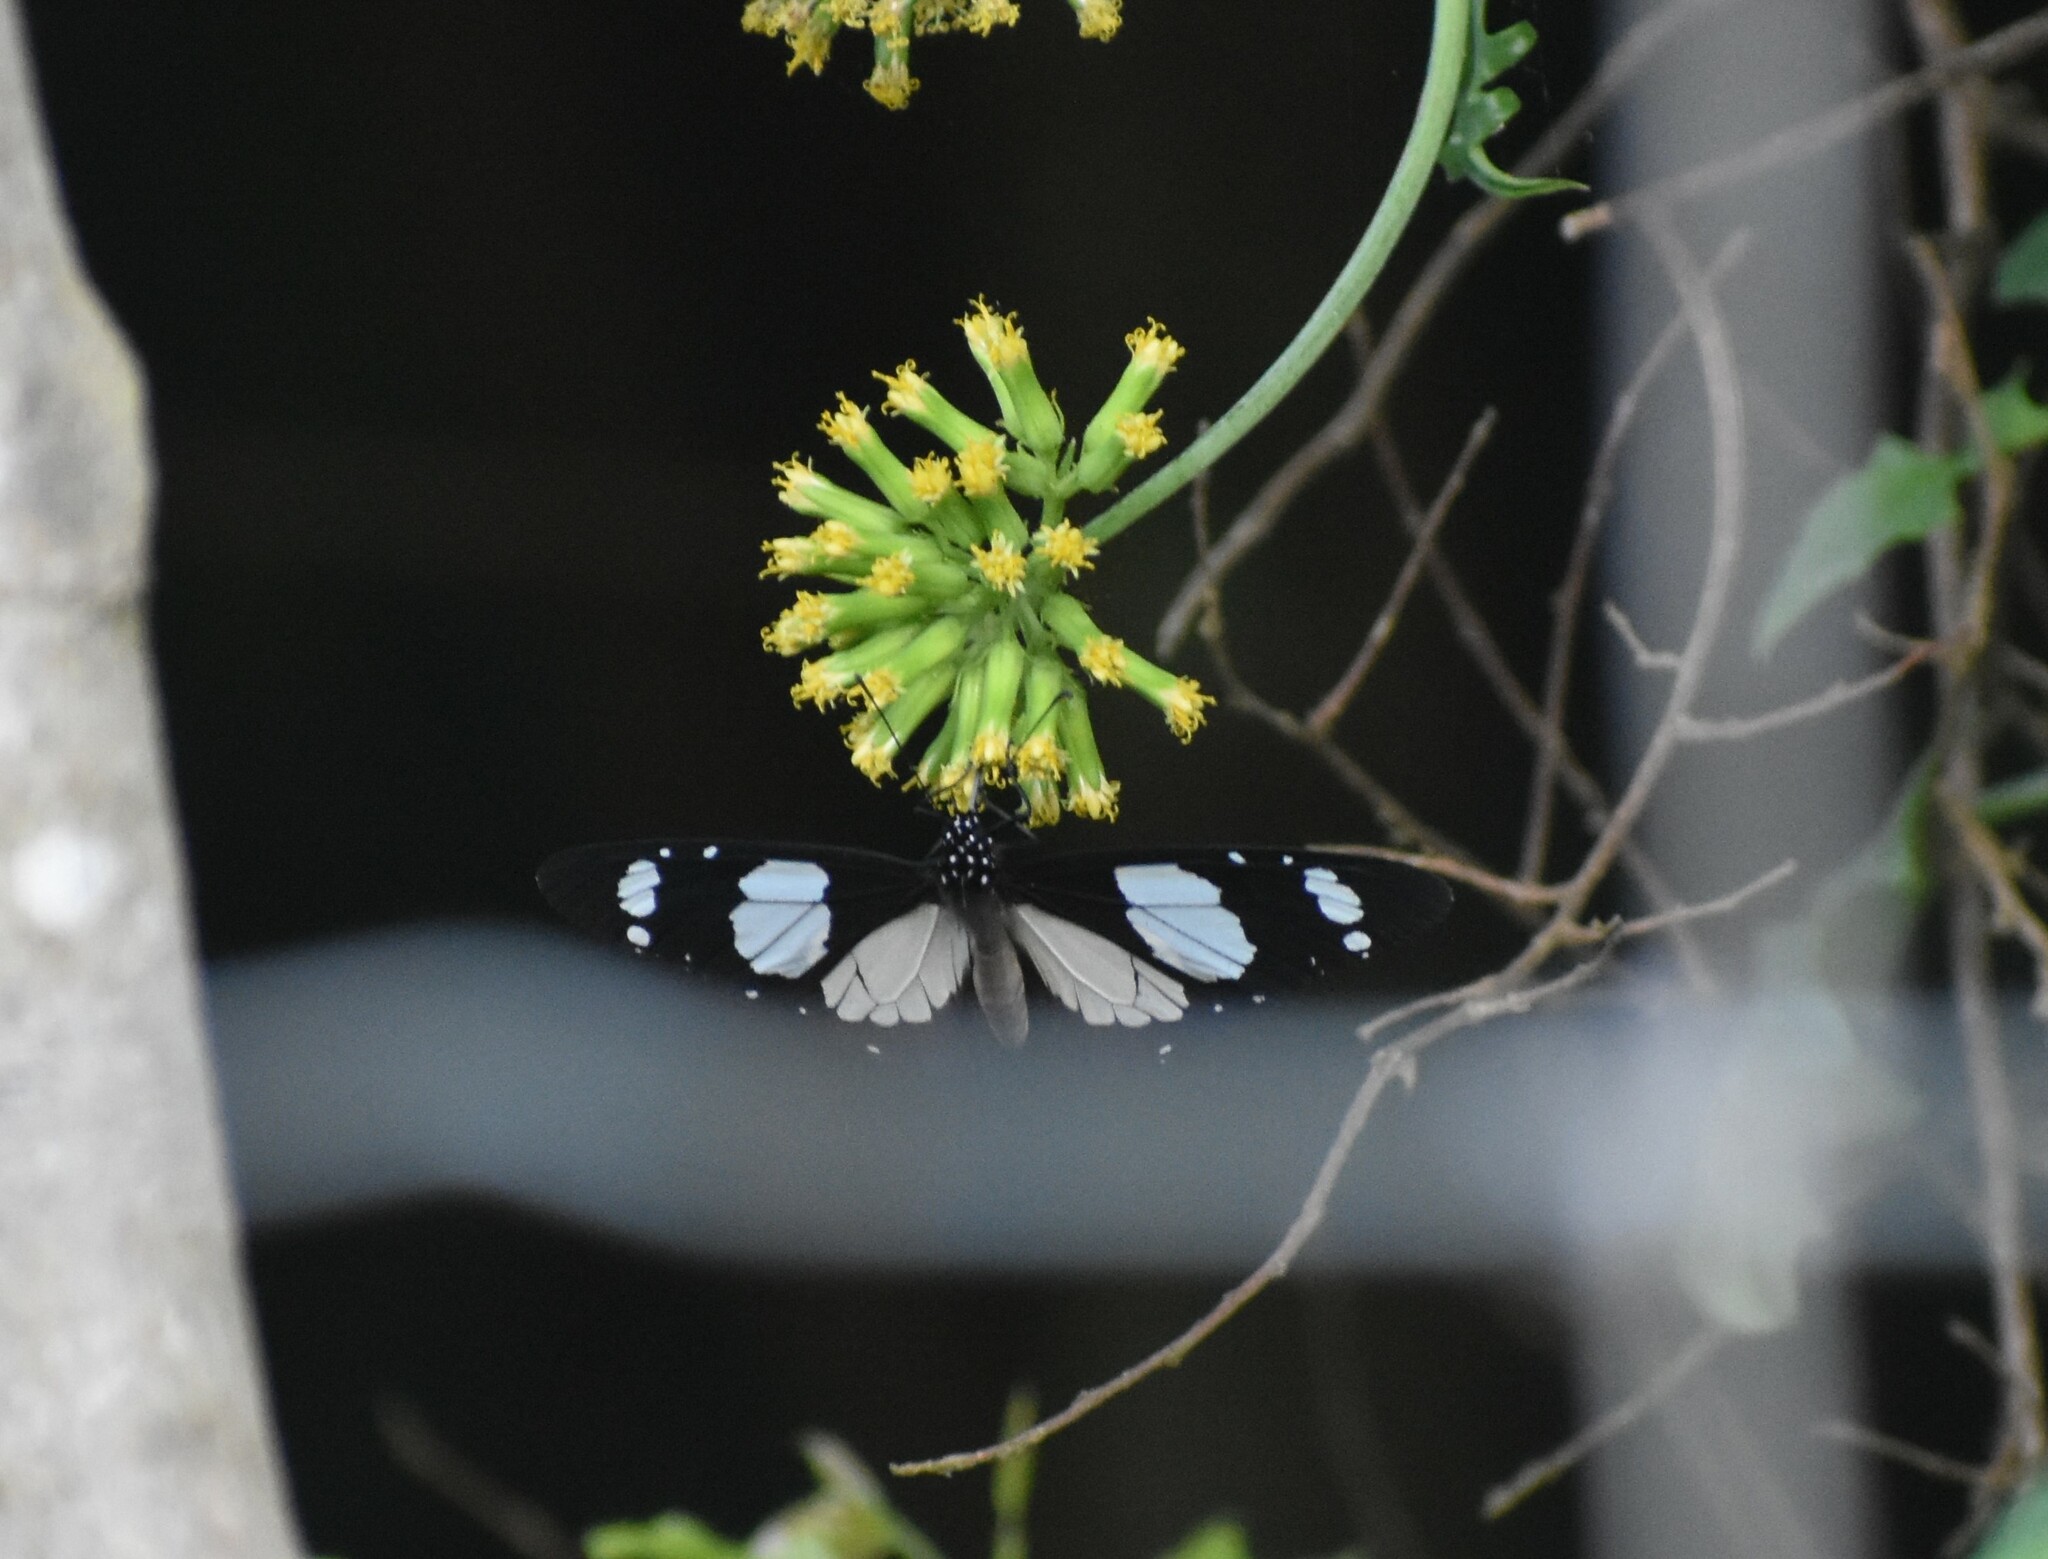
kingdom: Animalia
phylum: Arthropoda
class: Insecta
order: Lepidoptera
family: Nymphalidae
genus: Amauris
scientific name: Amauris ochlea
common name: Novice
